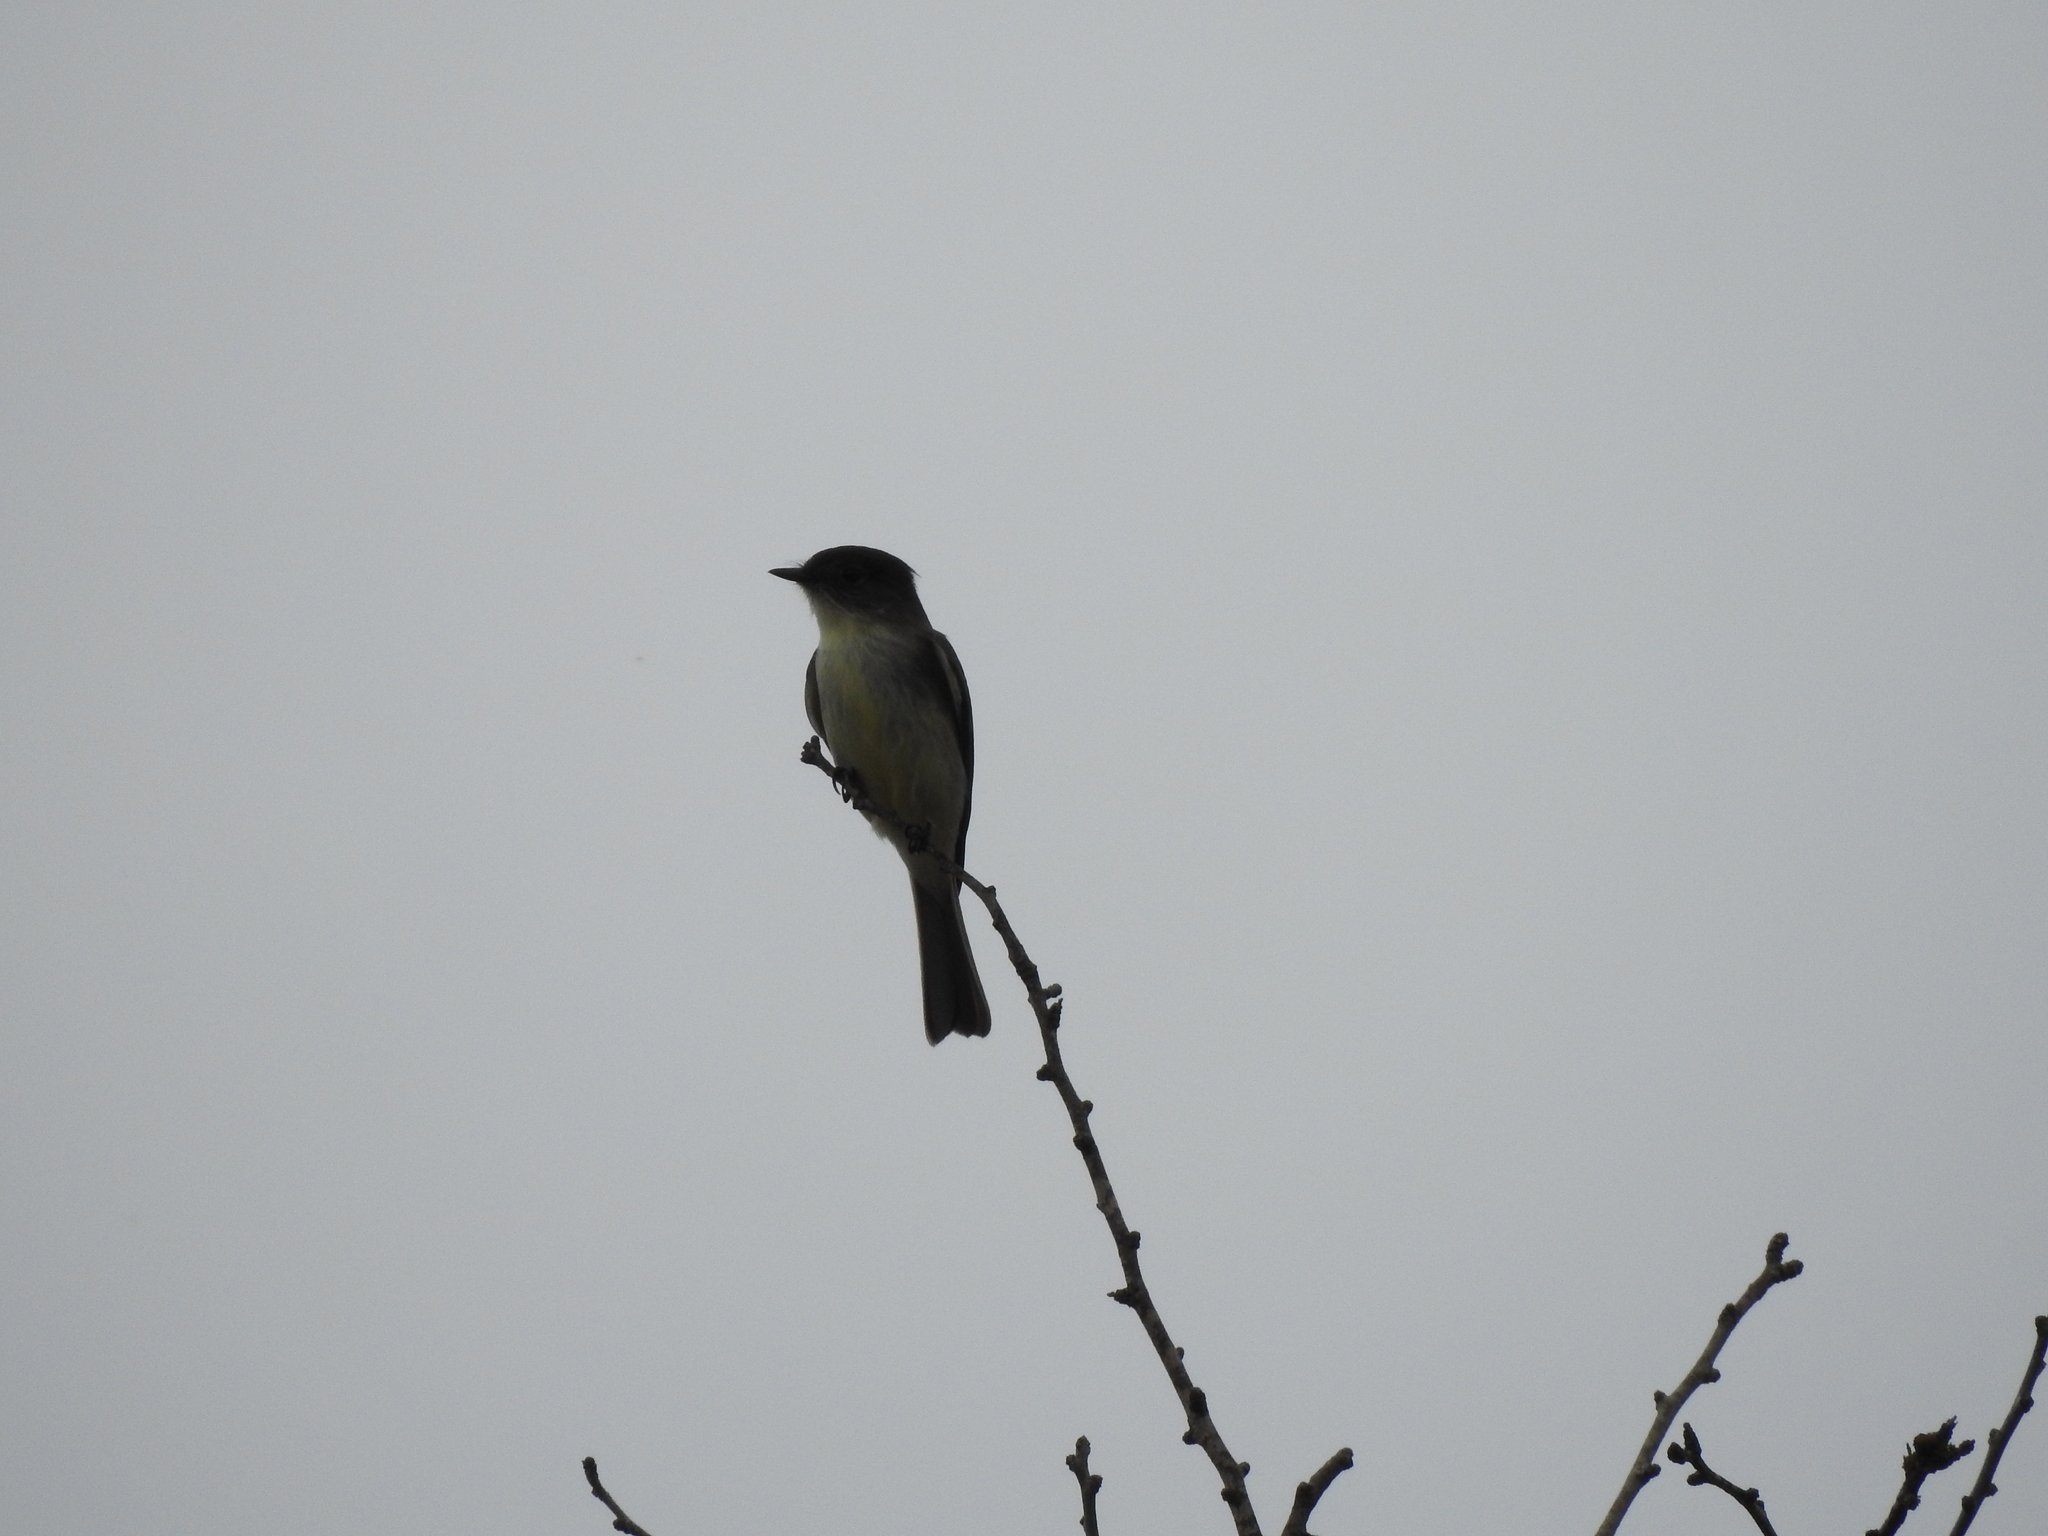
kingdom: Animalia
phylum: Chordata
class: Aves
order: Passeriformes
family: Tyrannidae
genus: Sayornis
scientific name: Sayornis phoebe
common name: Eastern phoebe
